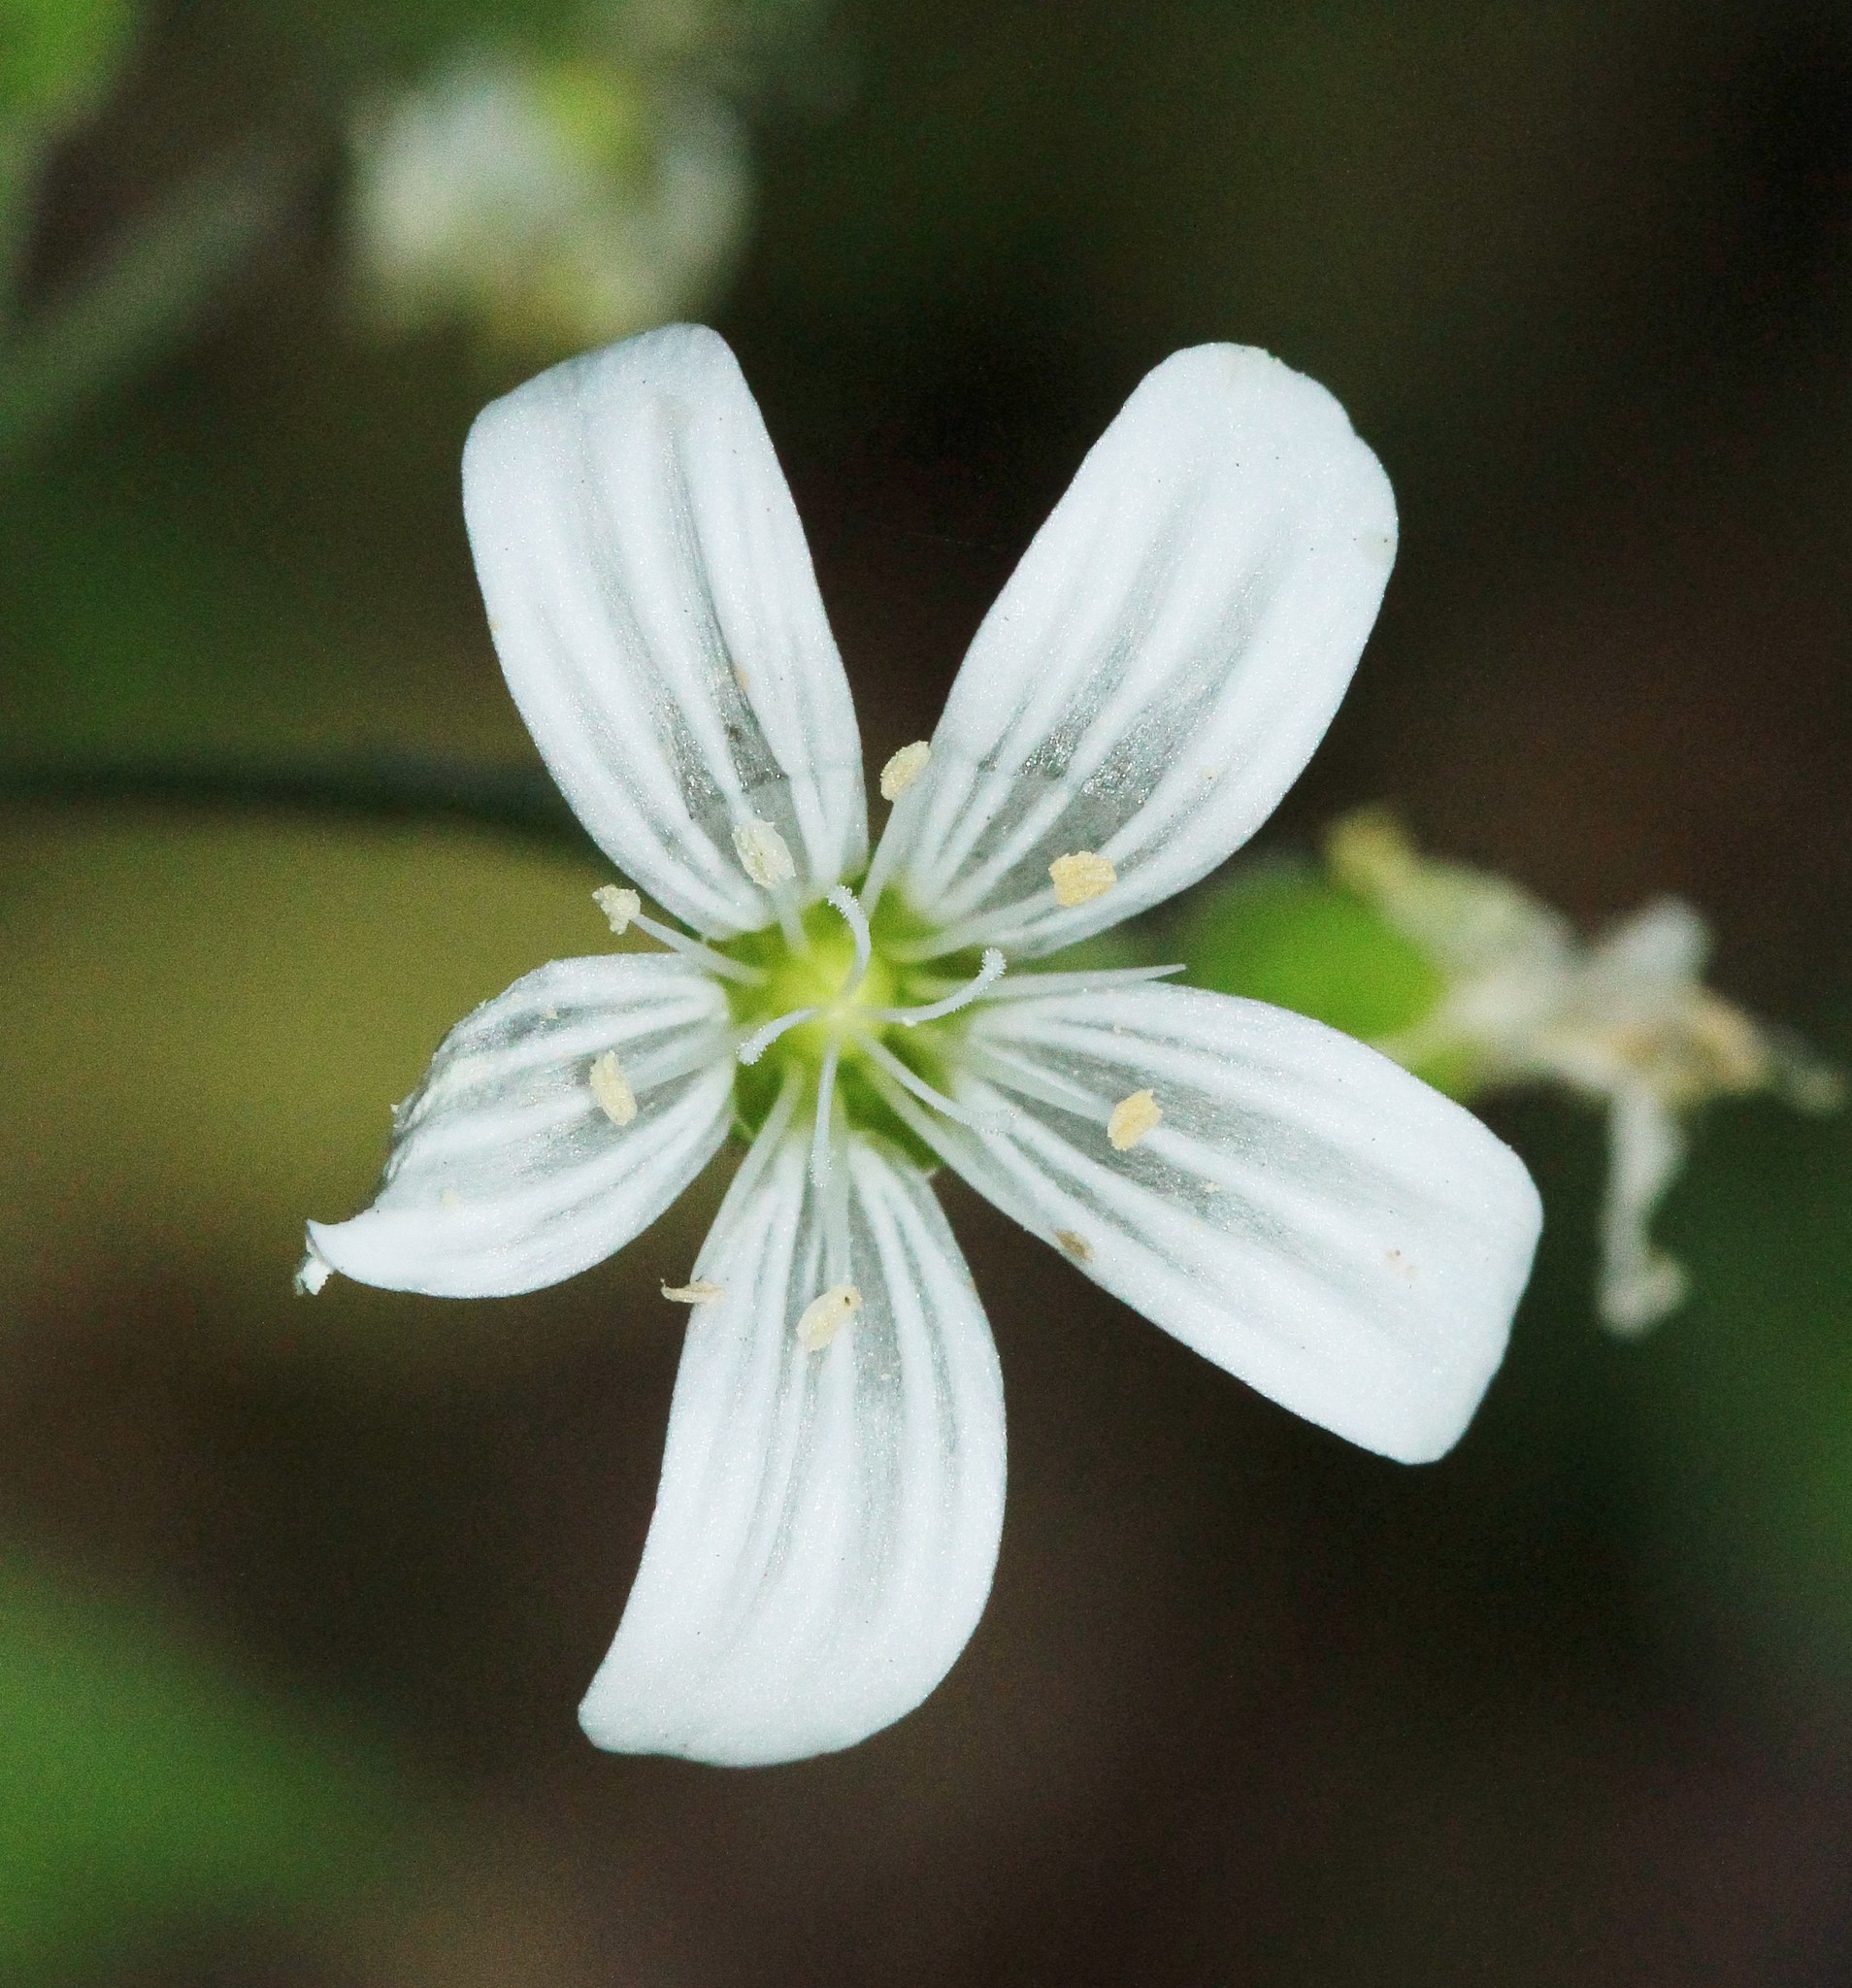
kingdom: Plantae
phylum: Tracheophyta
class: Magnoliopsida
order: Caryophyllales
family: Caryophyllaceae
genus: Cerastium
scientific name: Cerastium pauciflorum
